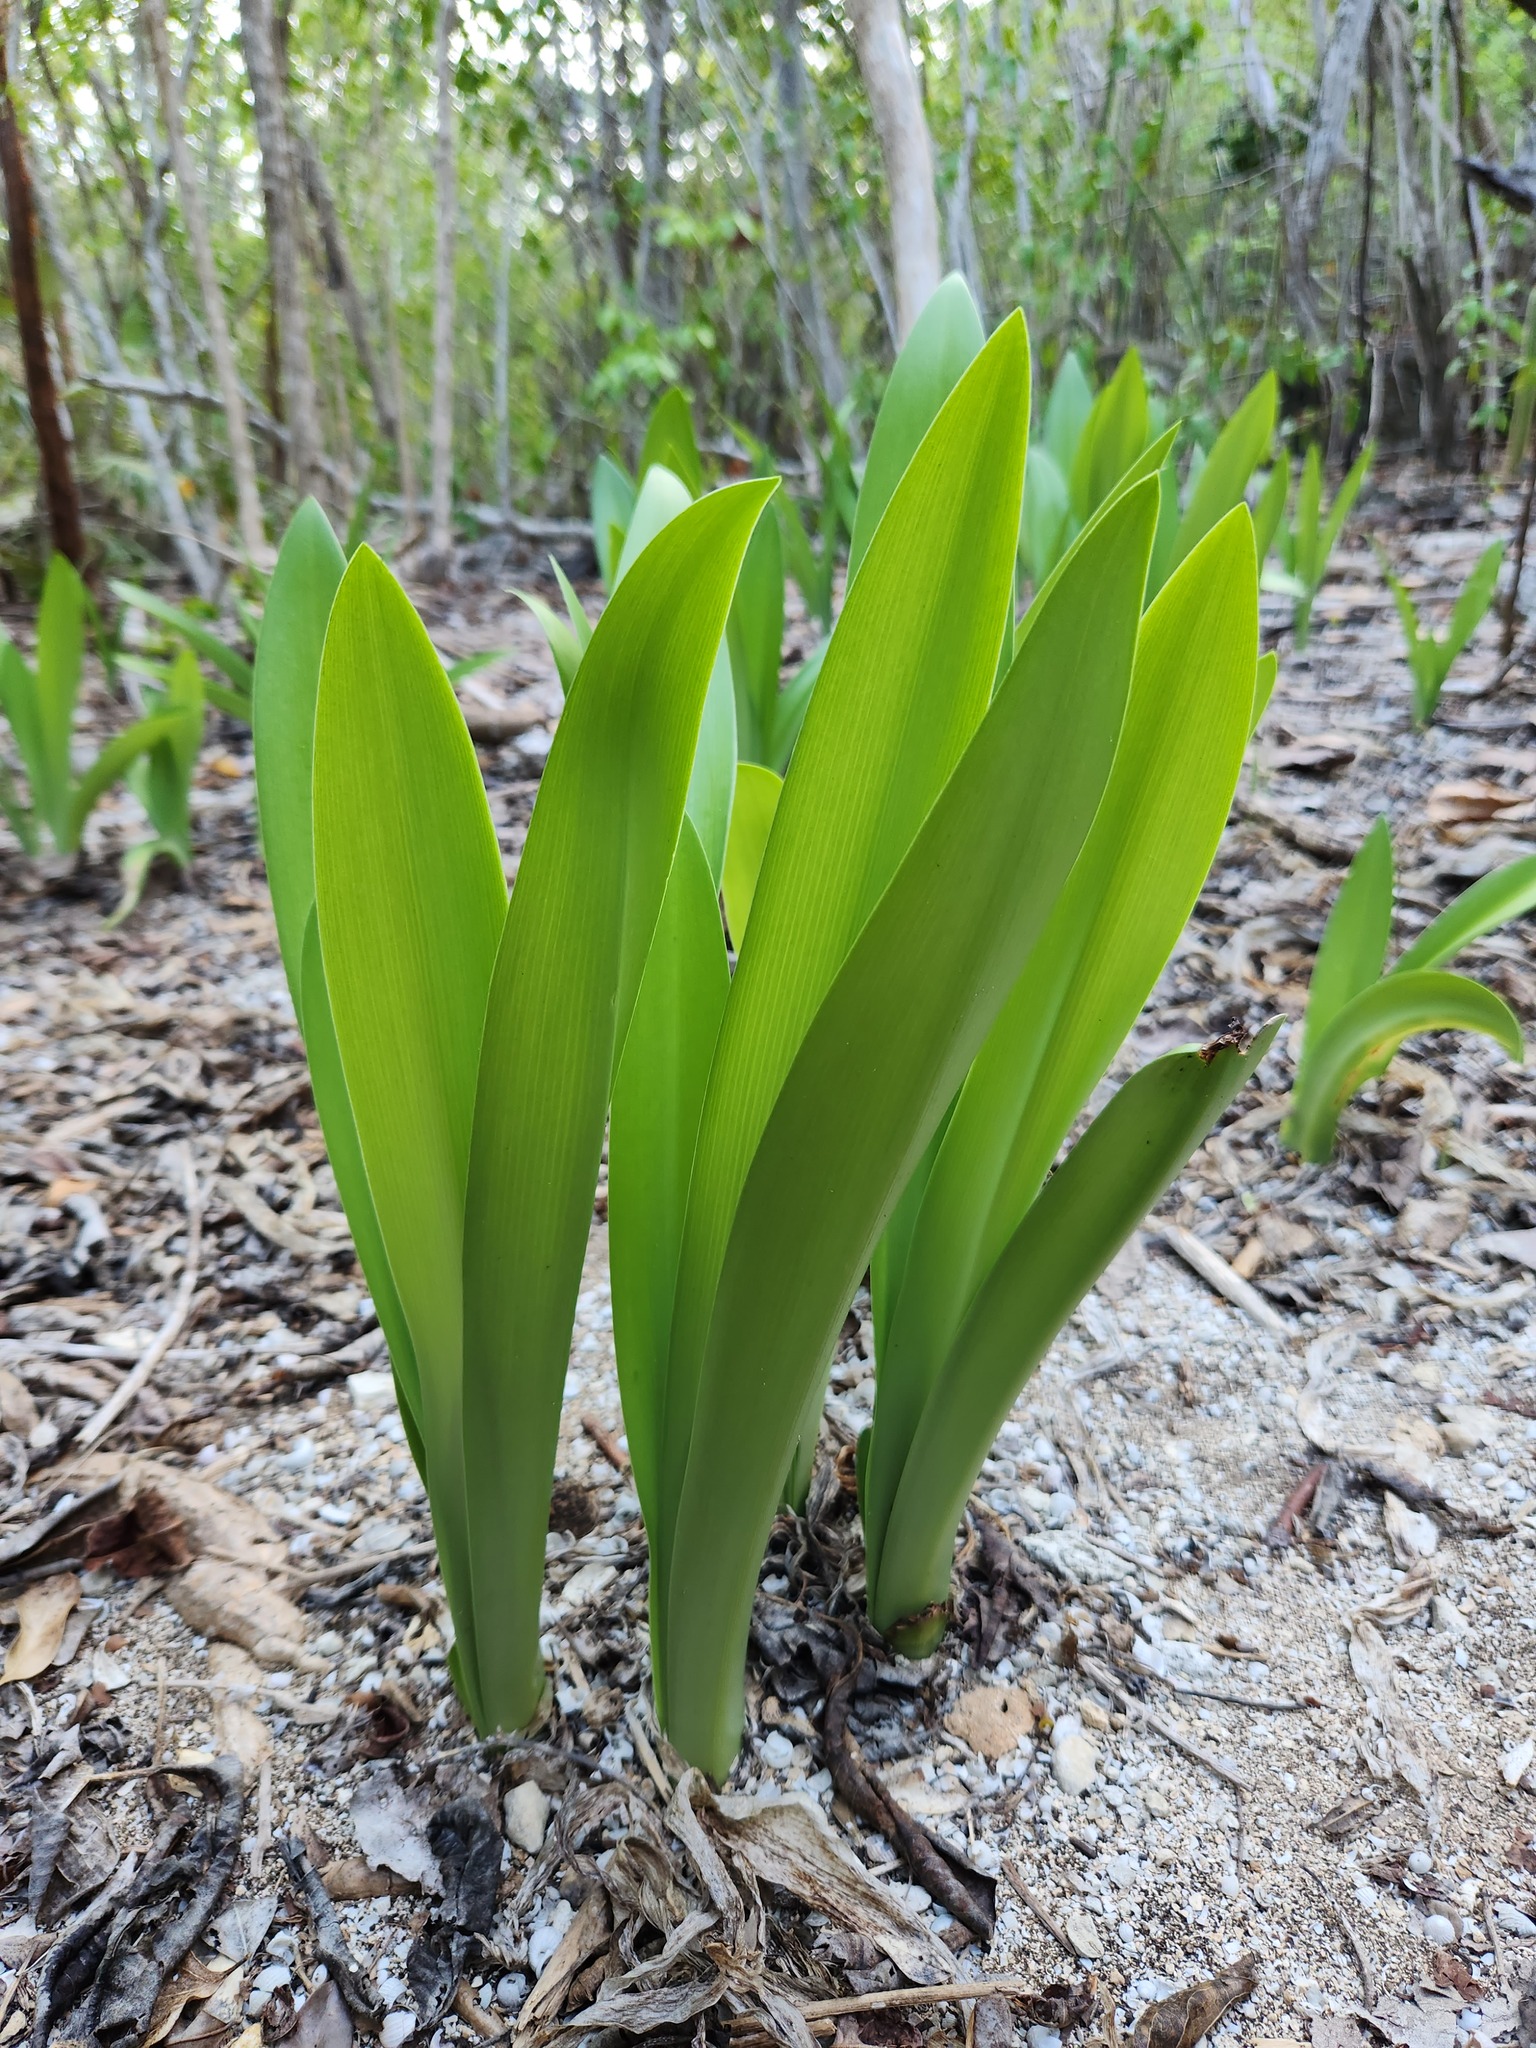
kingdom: Plantae
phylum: Tracheophyta
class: Liliopsida
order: Asparagales
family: Amaryllidaceae
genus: Hymenocallis
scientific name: Hymenocallis latifolia
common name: Cayman islands spider-lily
